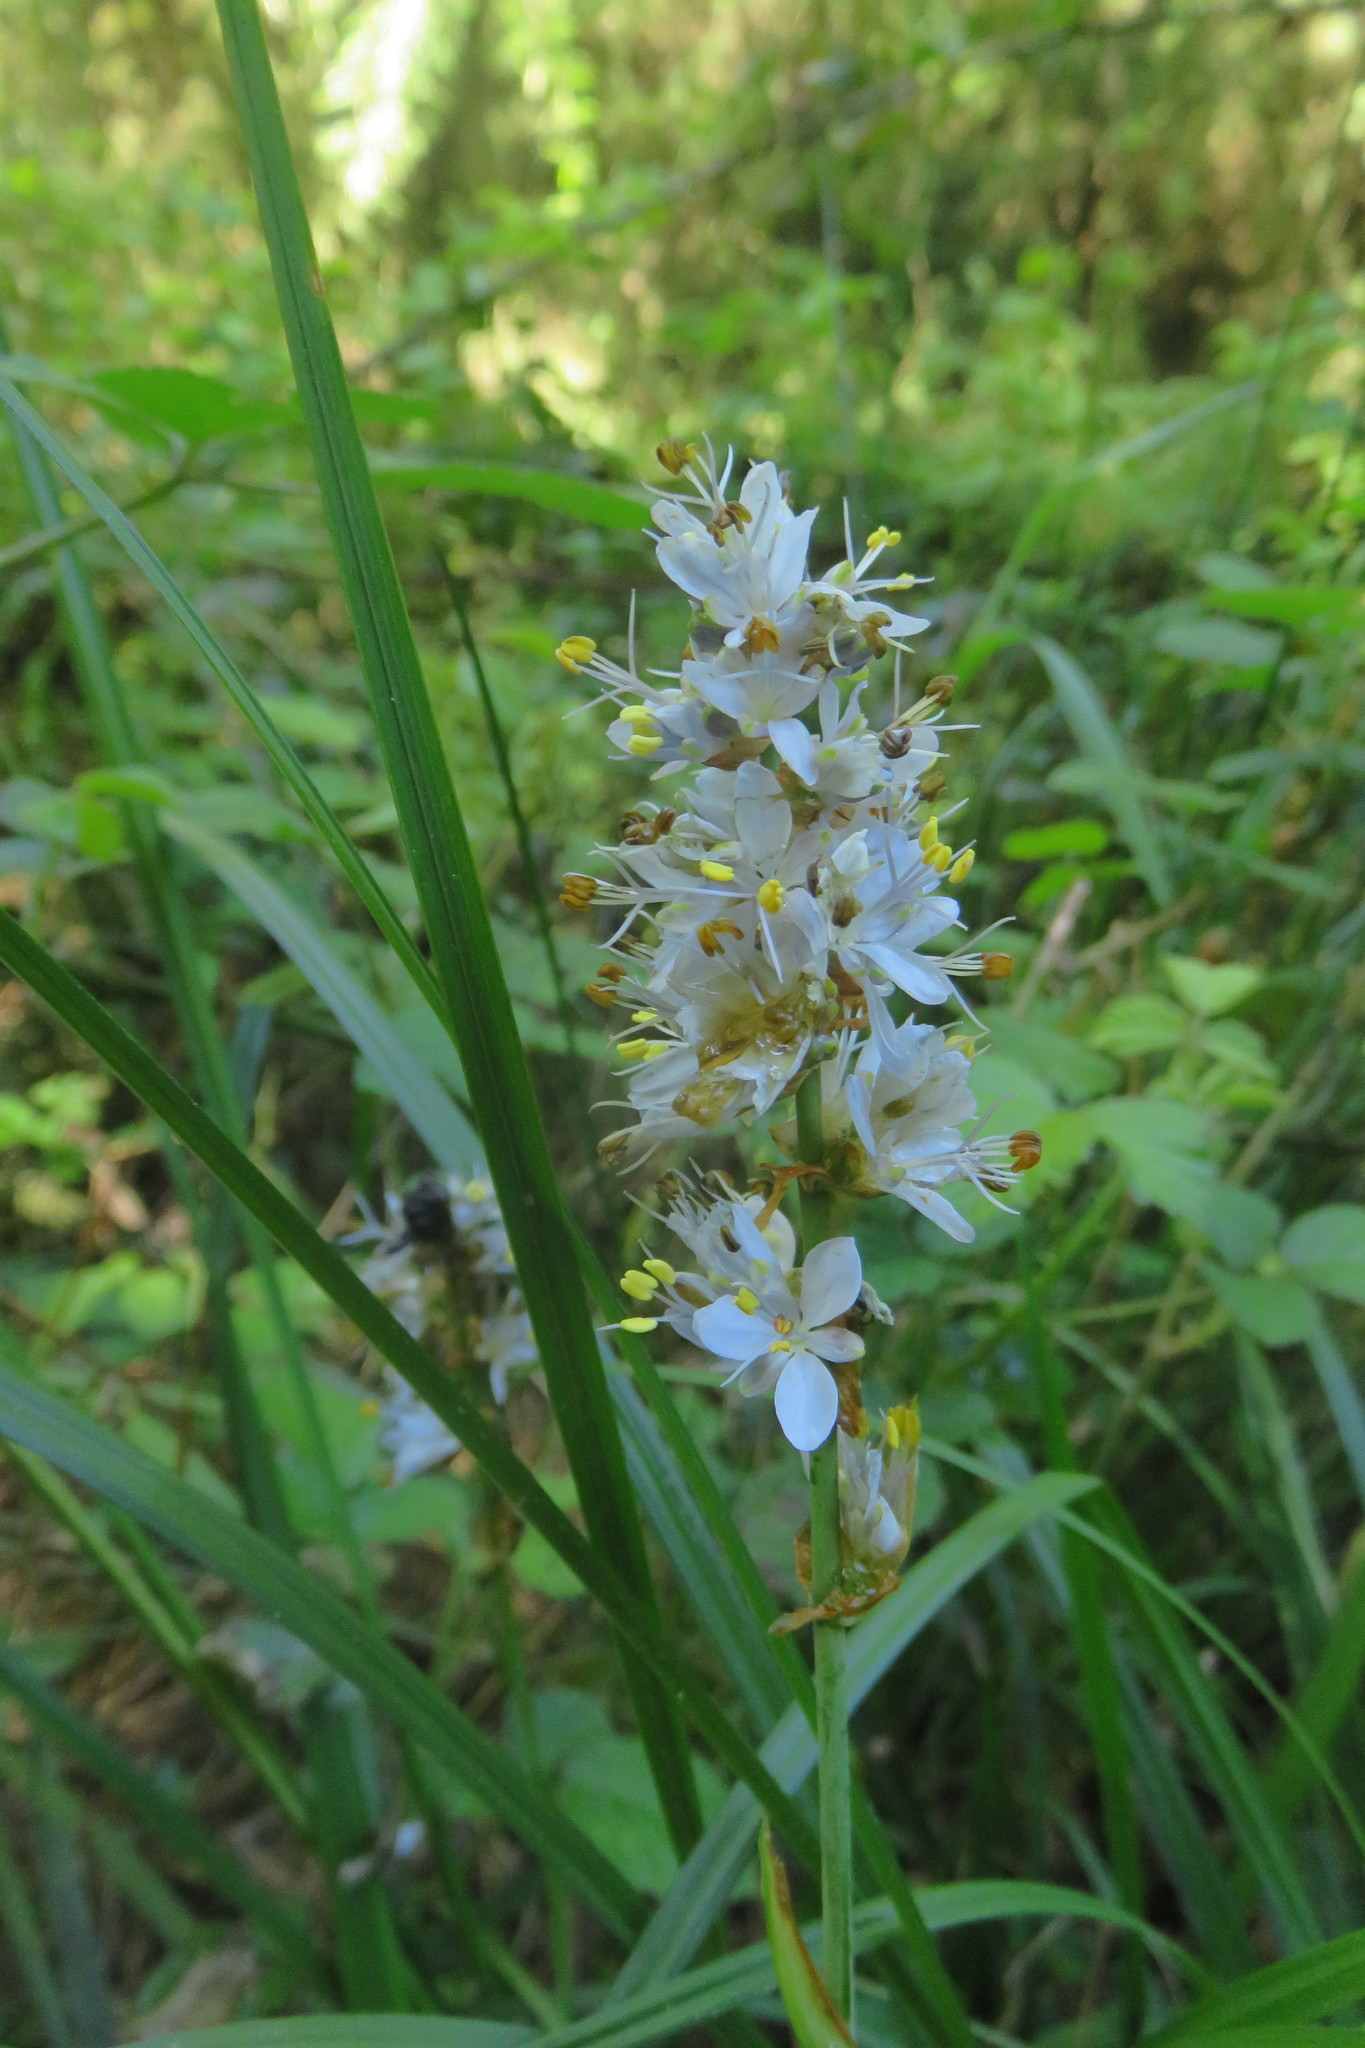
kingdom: Plantae
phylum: Tracheophyta
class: Liliopsida
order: Asparagales
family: Iridaceae
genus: Libertia
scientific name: Libertia sessiliflora
